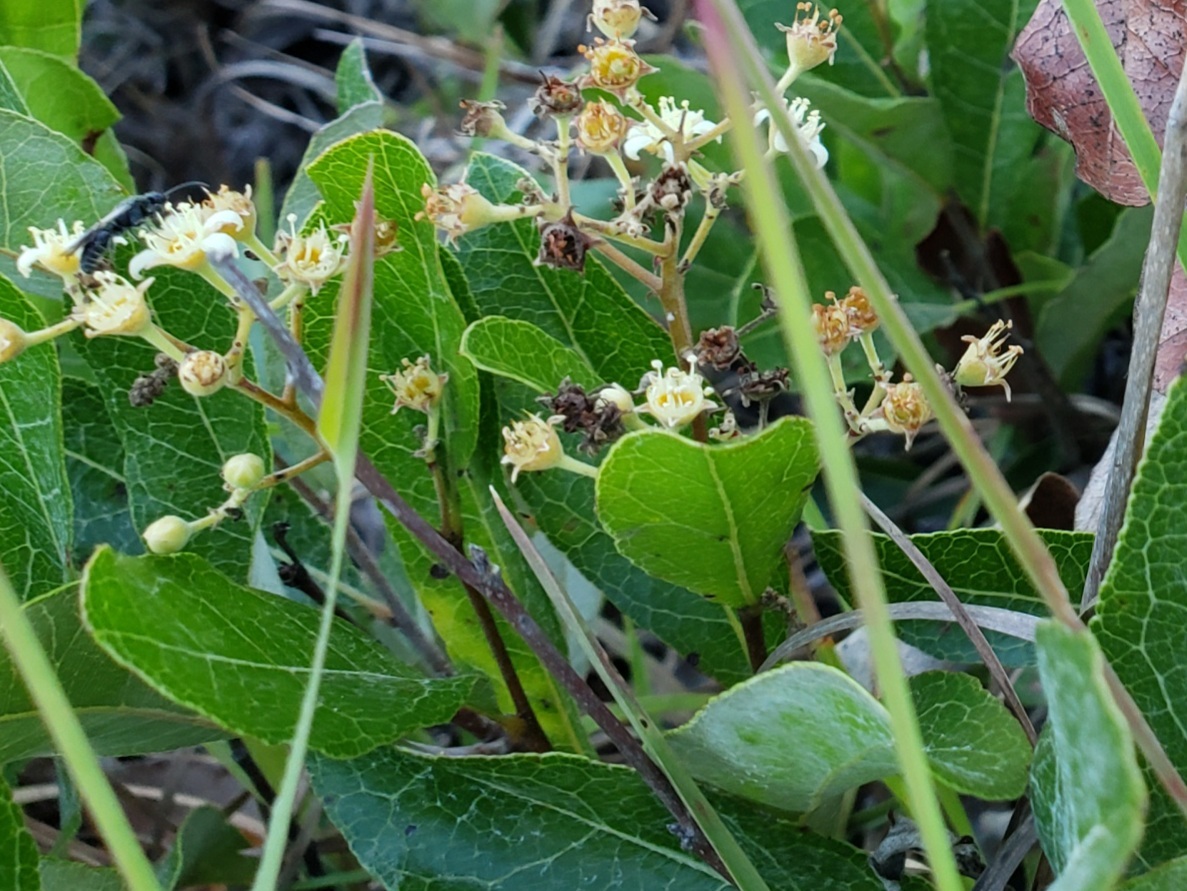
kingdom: Plantae
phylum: Tracheophyta
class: Magnoliopsida
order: Malpighiales
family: Chrysobalanaceae
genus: Geobalanus
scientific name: Geobalanus oblongifolius
